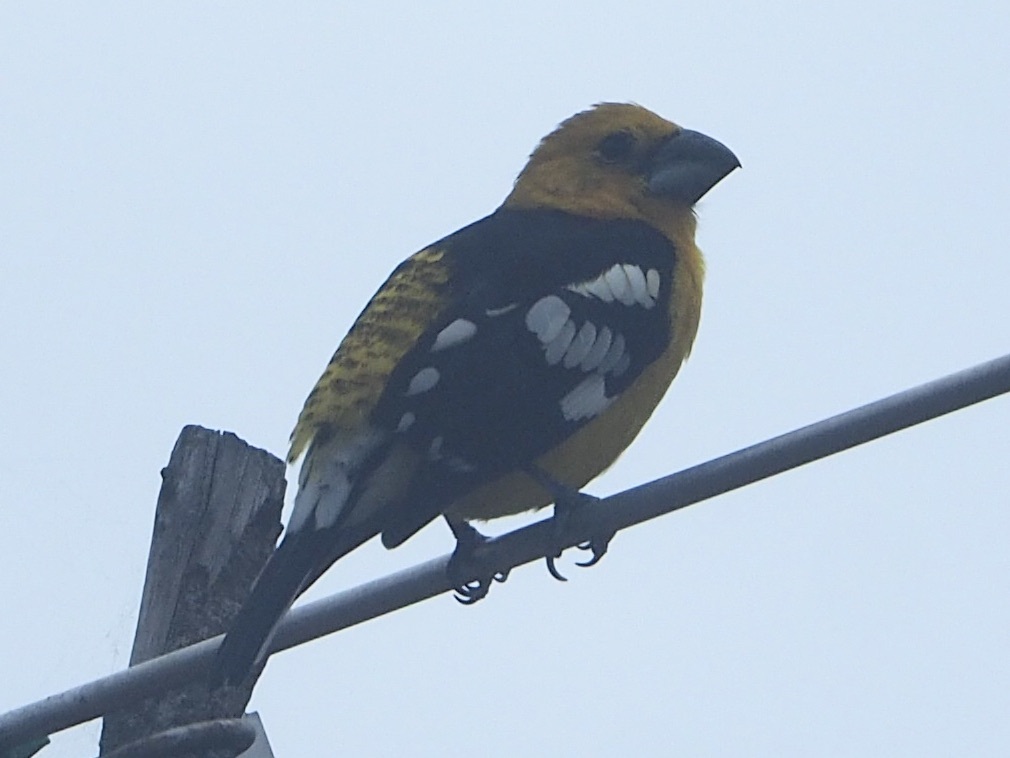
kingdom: Animalia
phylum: Chordata
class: Aves
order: Passeriformes
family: Cardinalidae
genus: Pheucticus
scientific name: Pheucticus chrysogaster
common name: Golden grosbeak
